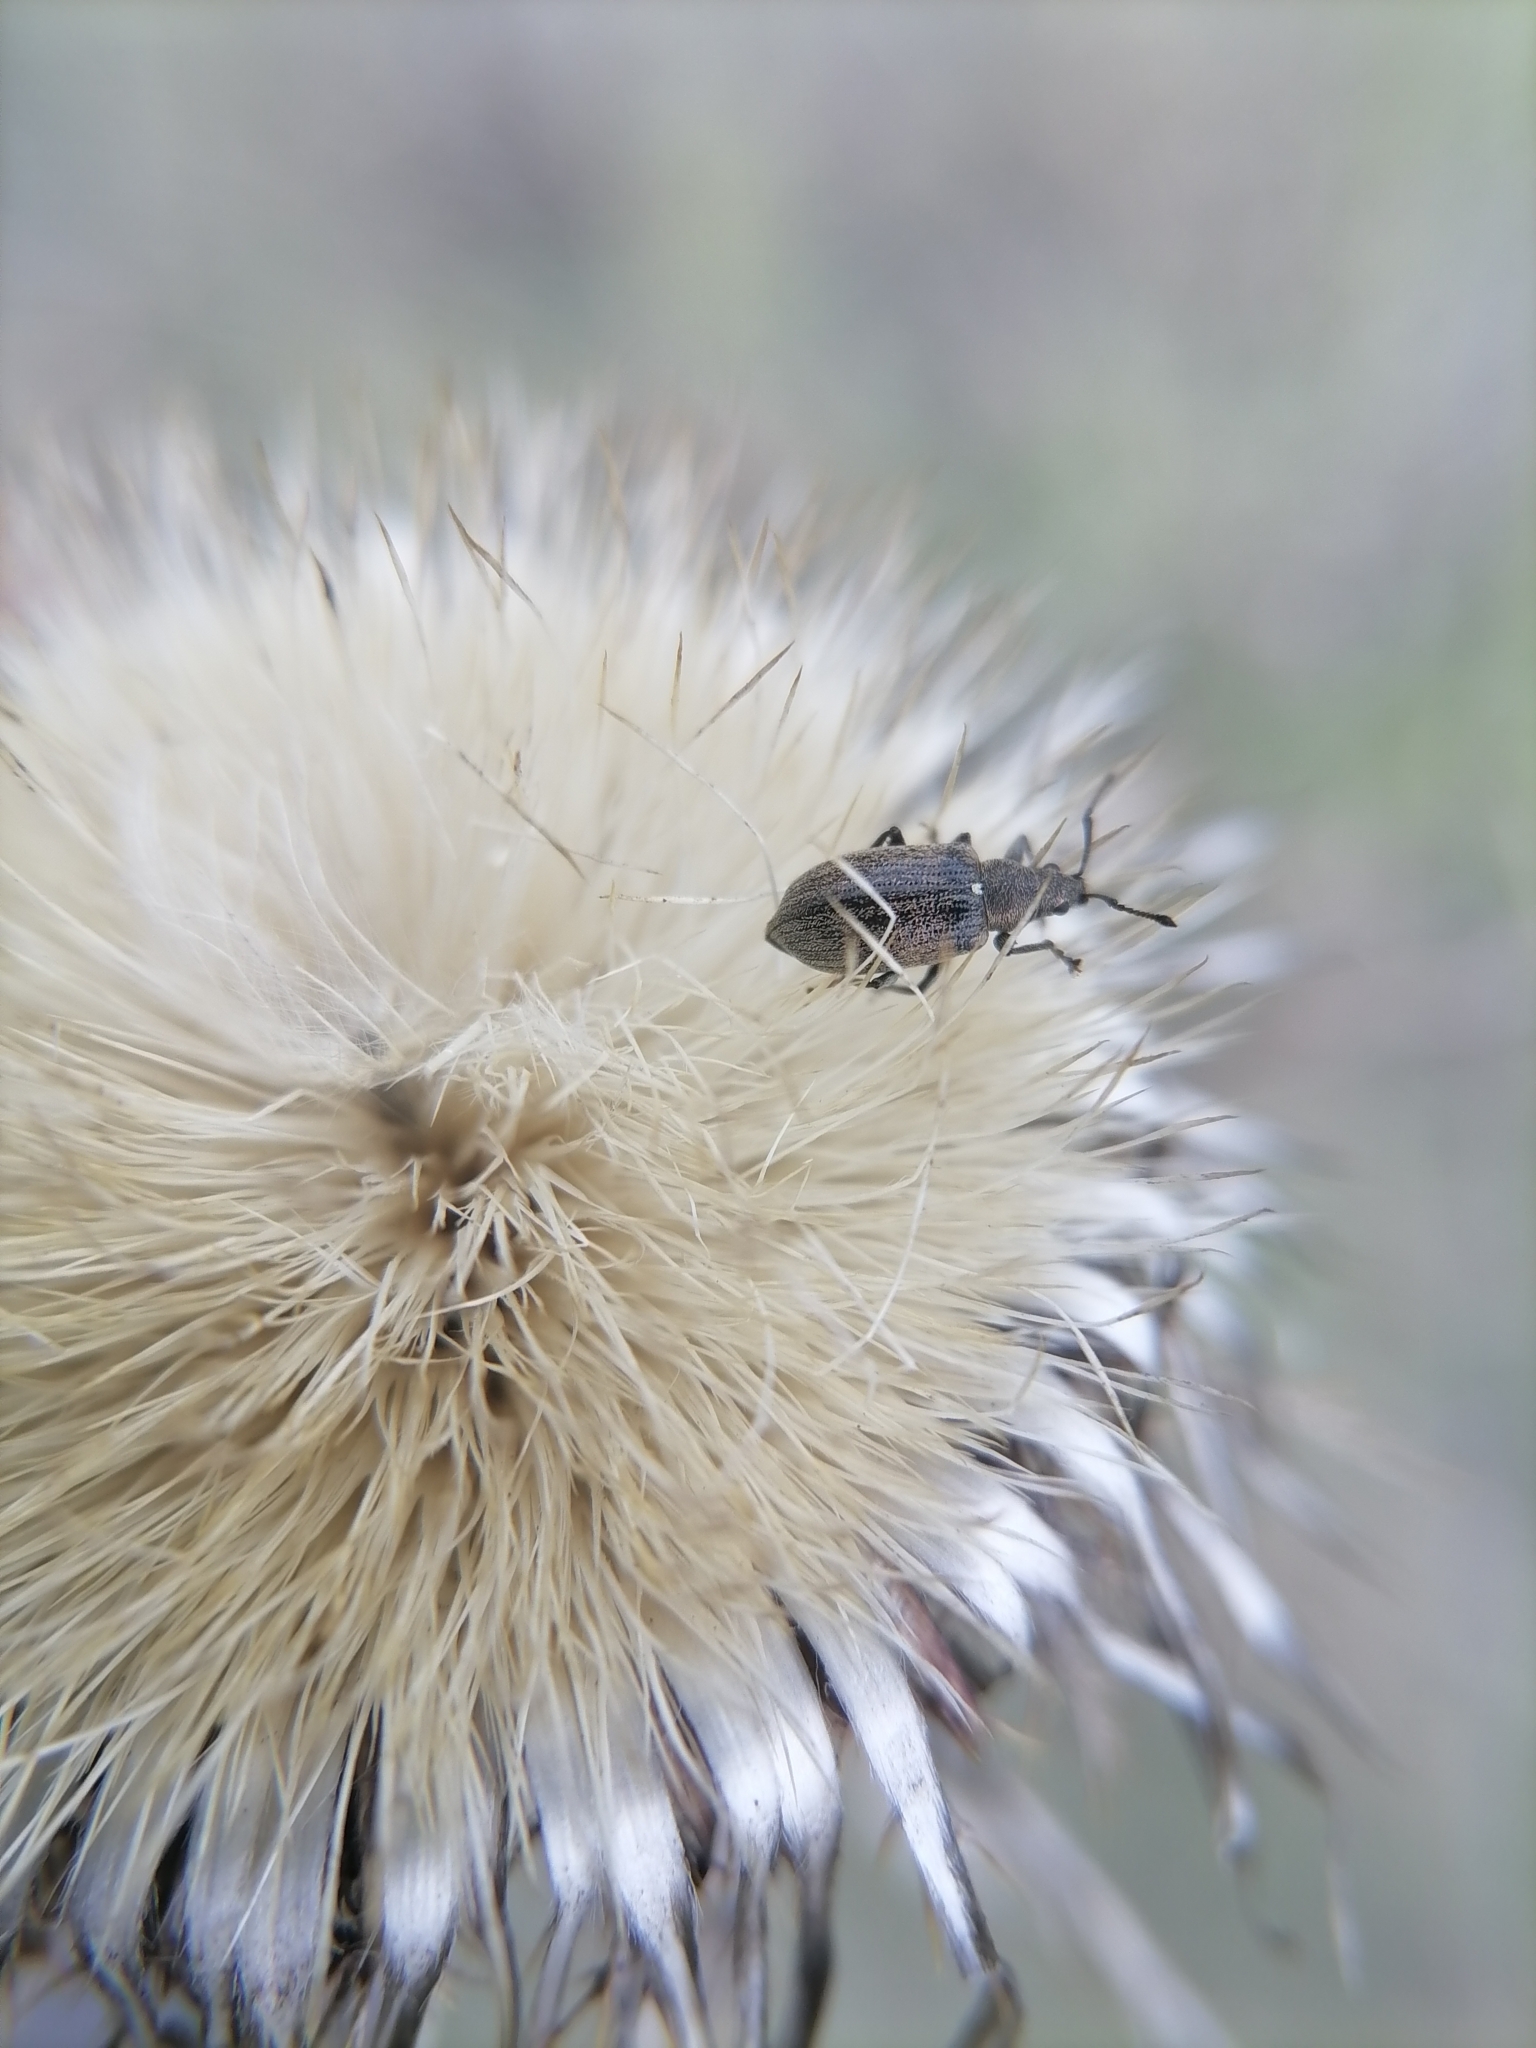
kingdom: Animalia
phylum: Arthropoda
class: Insecta
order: Coleoptera
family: Curculionidae
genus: Phyllobius
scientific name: Phyllobius pyri
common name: Common leaf weevil
